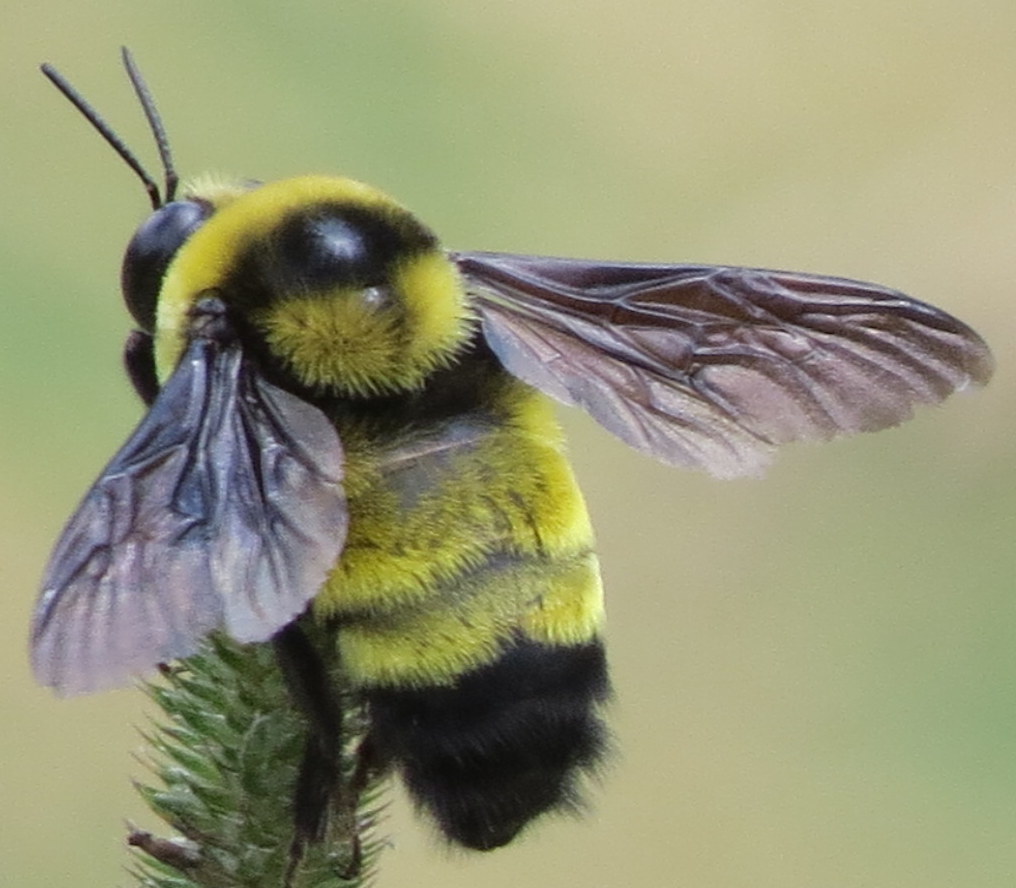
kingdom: Animalia
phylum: Arthropoda
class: Insecta
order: Hymenoptera
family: Apidae
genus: Bombus
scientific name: Bombus auricomus
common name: Black and gold bumble bee
